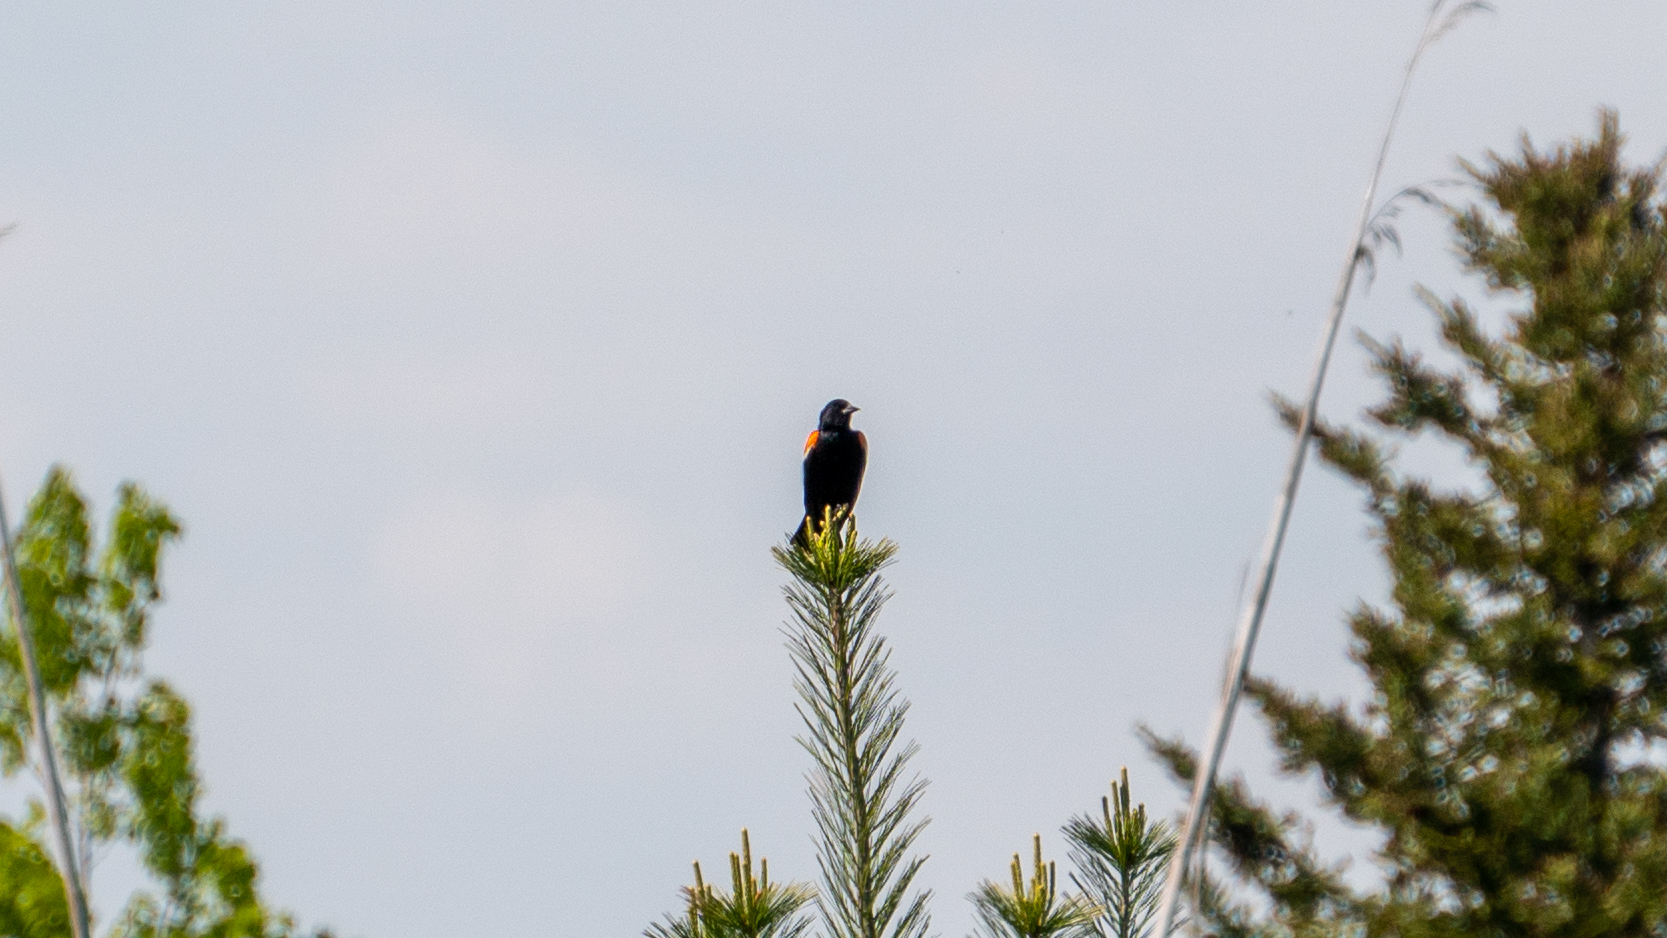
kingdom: Animalia
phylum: Chordata
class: Aves
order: Passeriformes
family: Icteridae
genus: Agelaius
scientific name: Agelaius phoeniceus
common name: Red-winged blackbird
